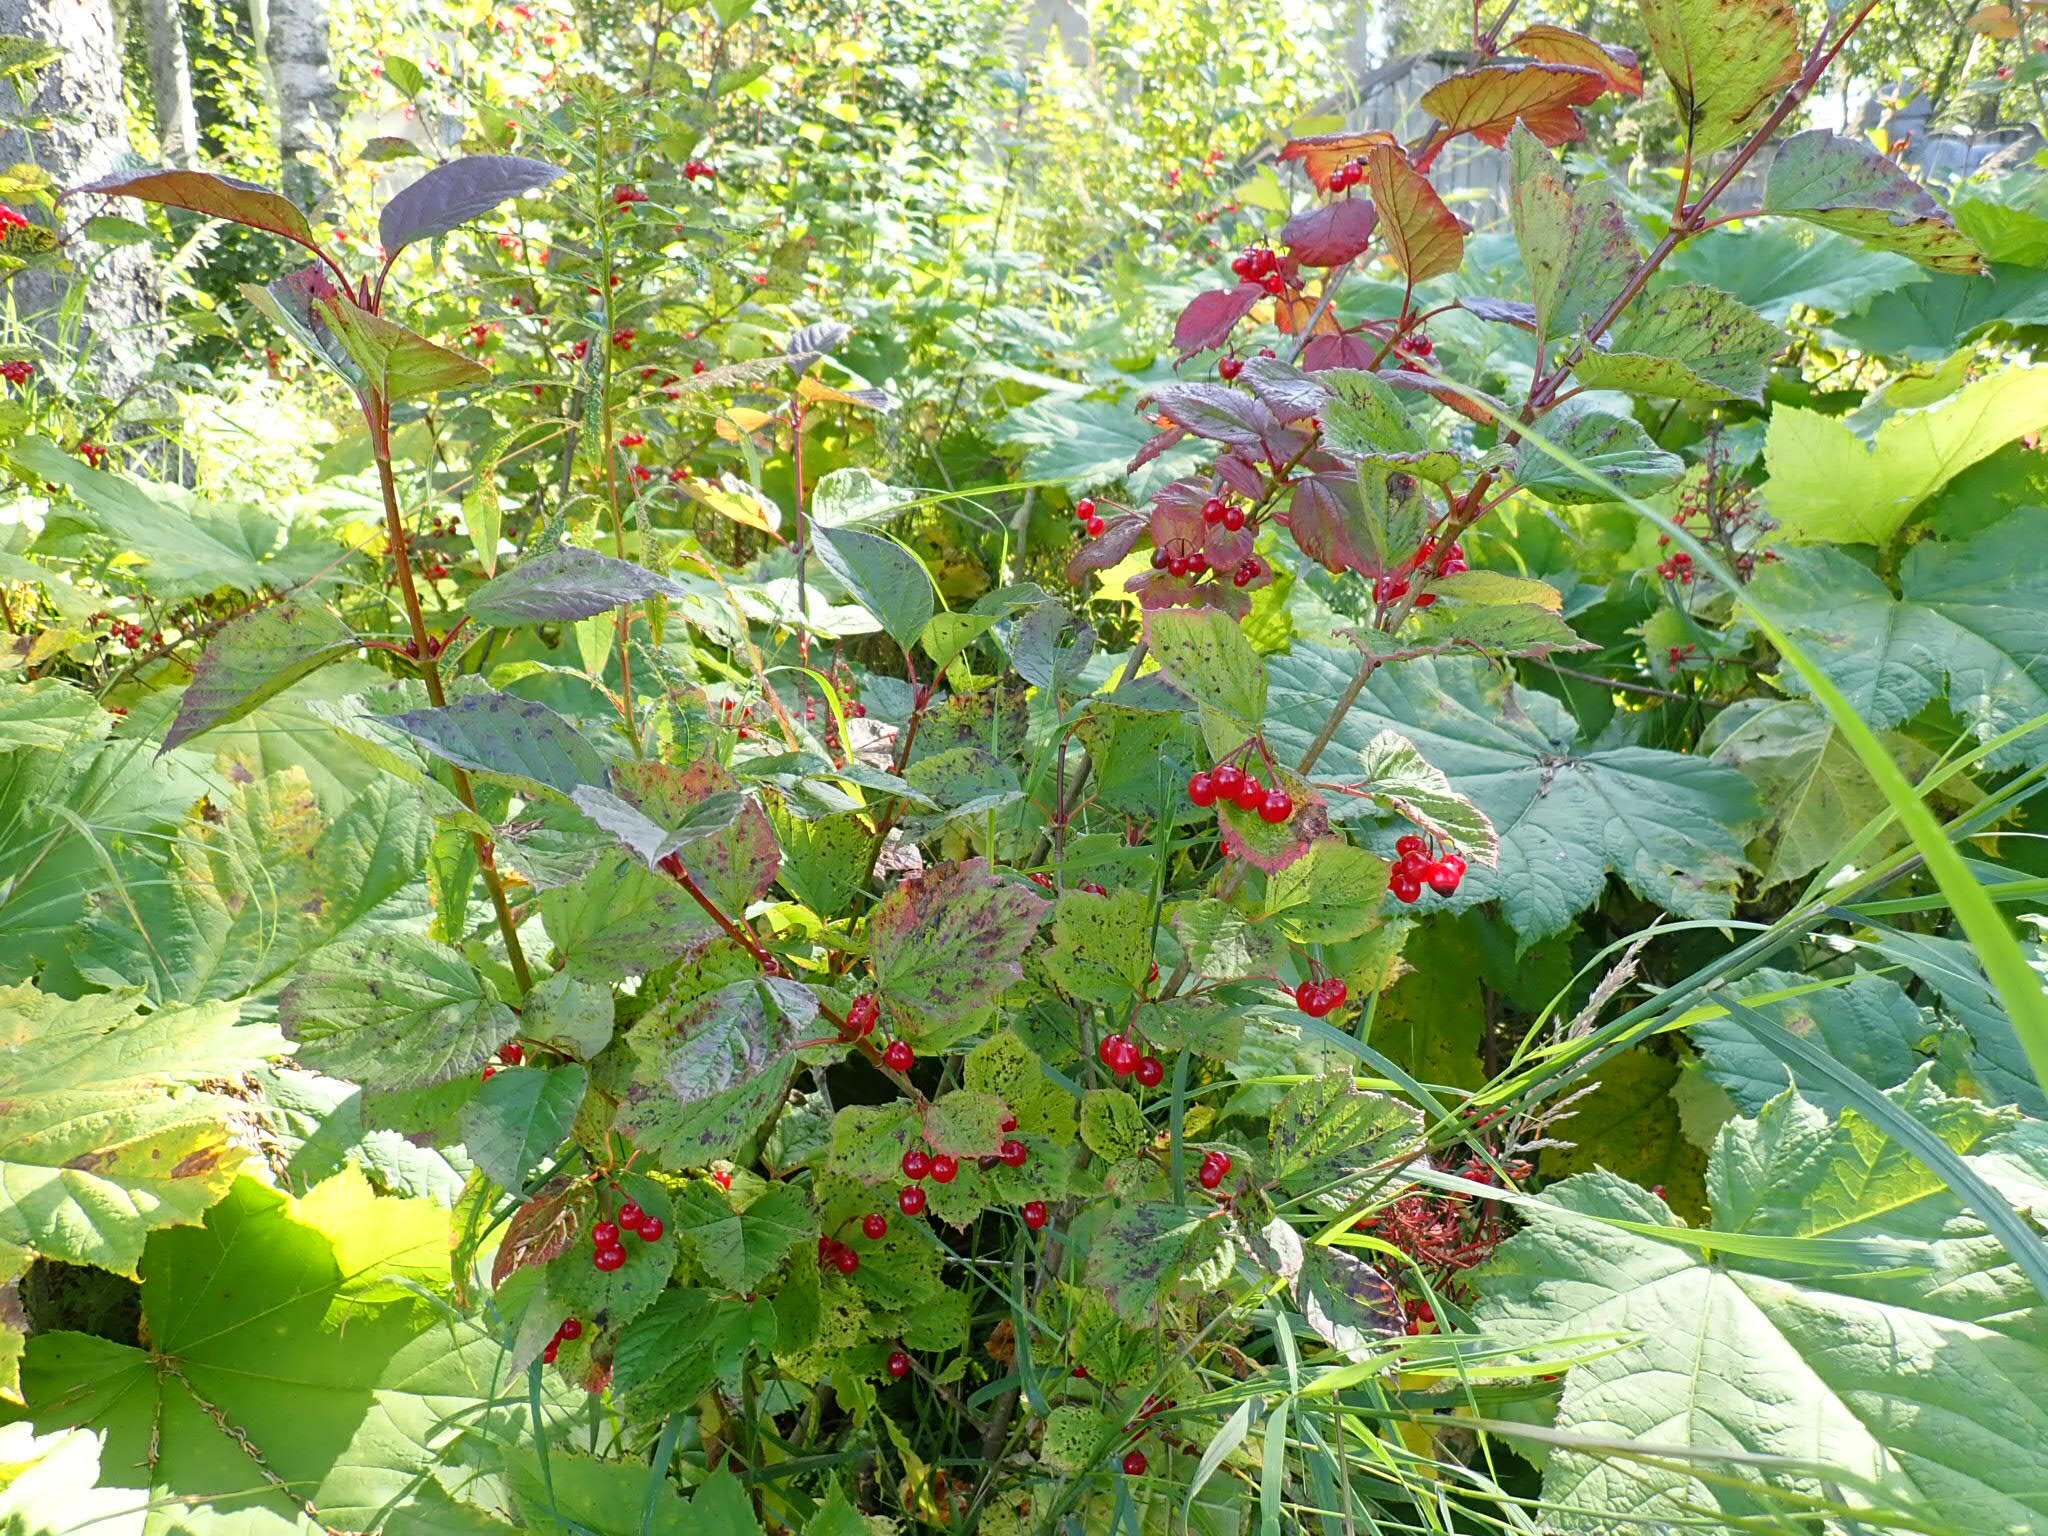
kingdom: Plantae
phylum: Tracheophyta
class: Magnoliopsida
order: Dipsacales
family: Viburnaceae
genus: Viburnum
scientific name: Viburnum edule
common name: Mooseberry
